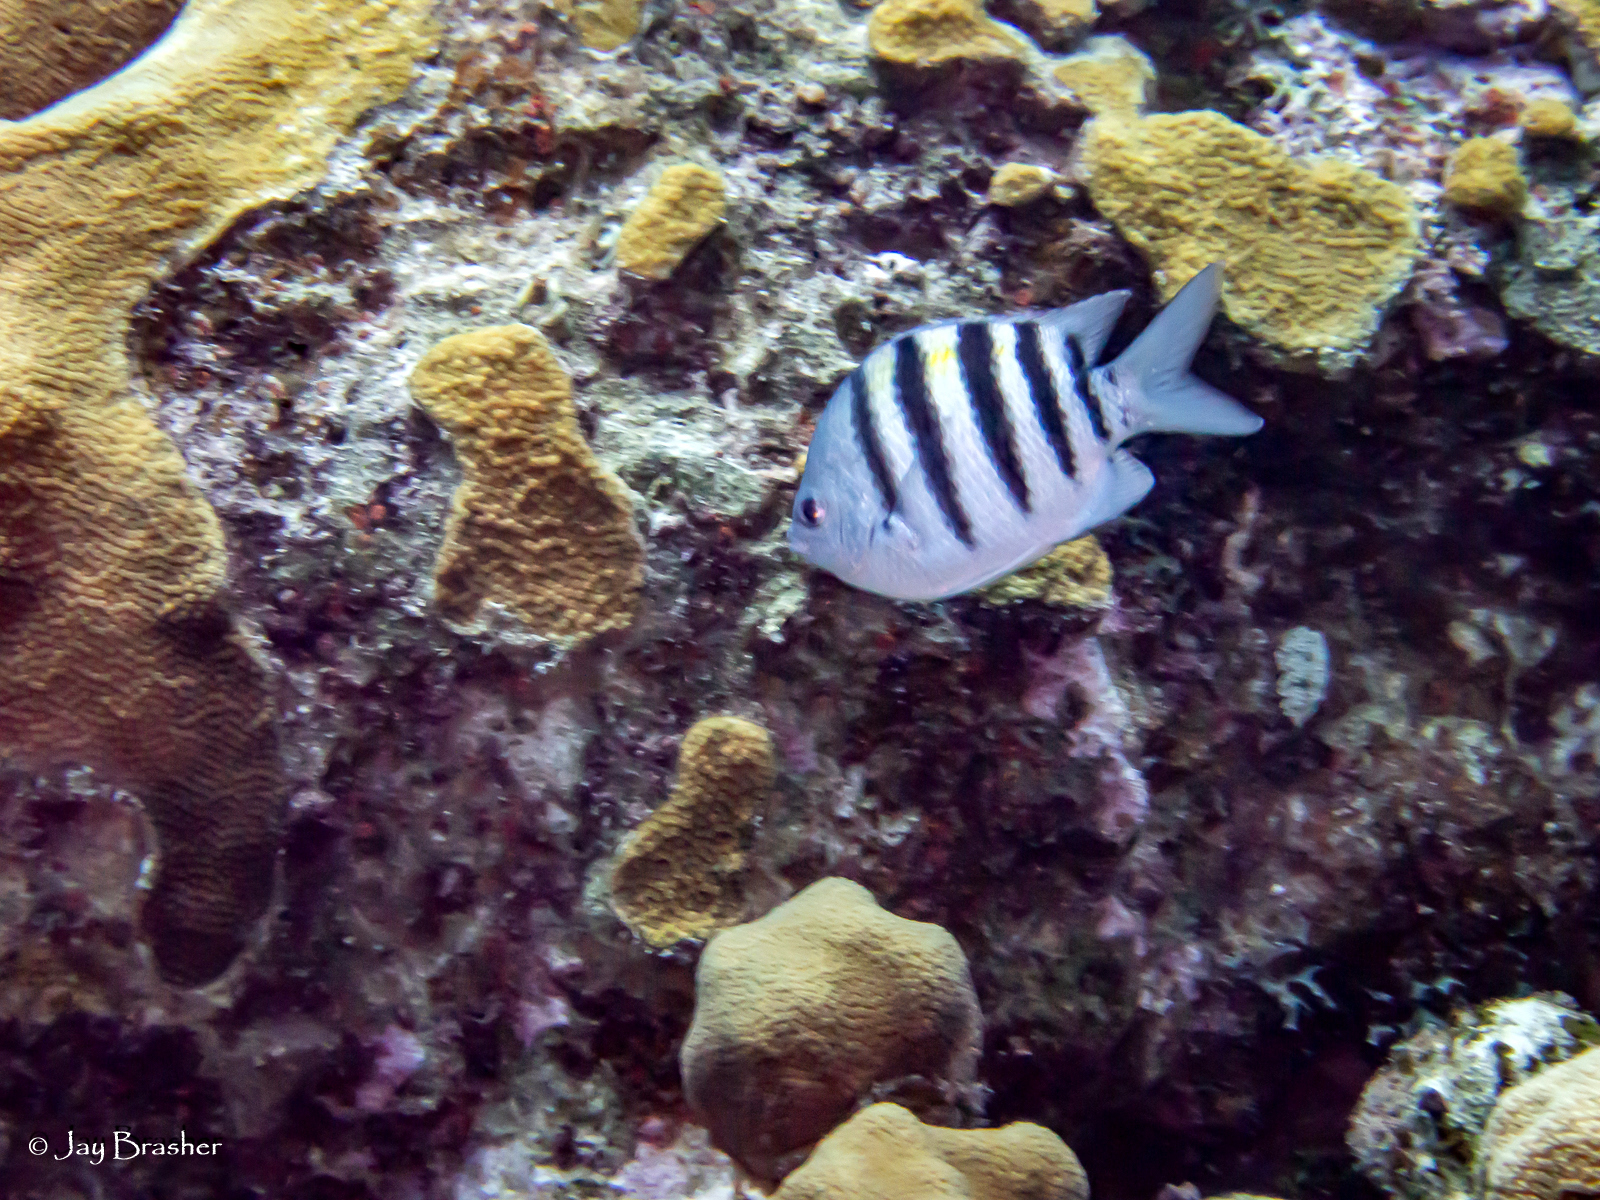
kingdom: Animalia
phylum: Chordata
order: Perciformes
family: Pomacentridae
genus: Abudefduf
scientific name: Abudefduf saxatilis
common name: Sergeant major
